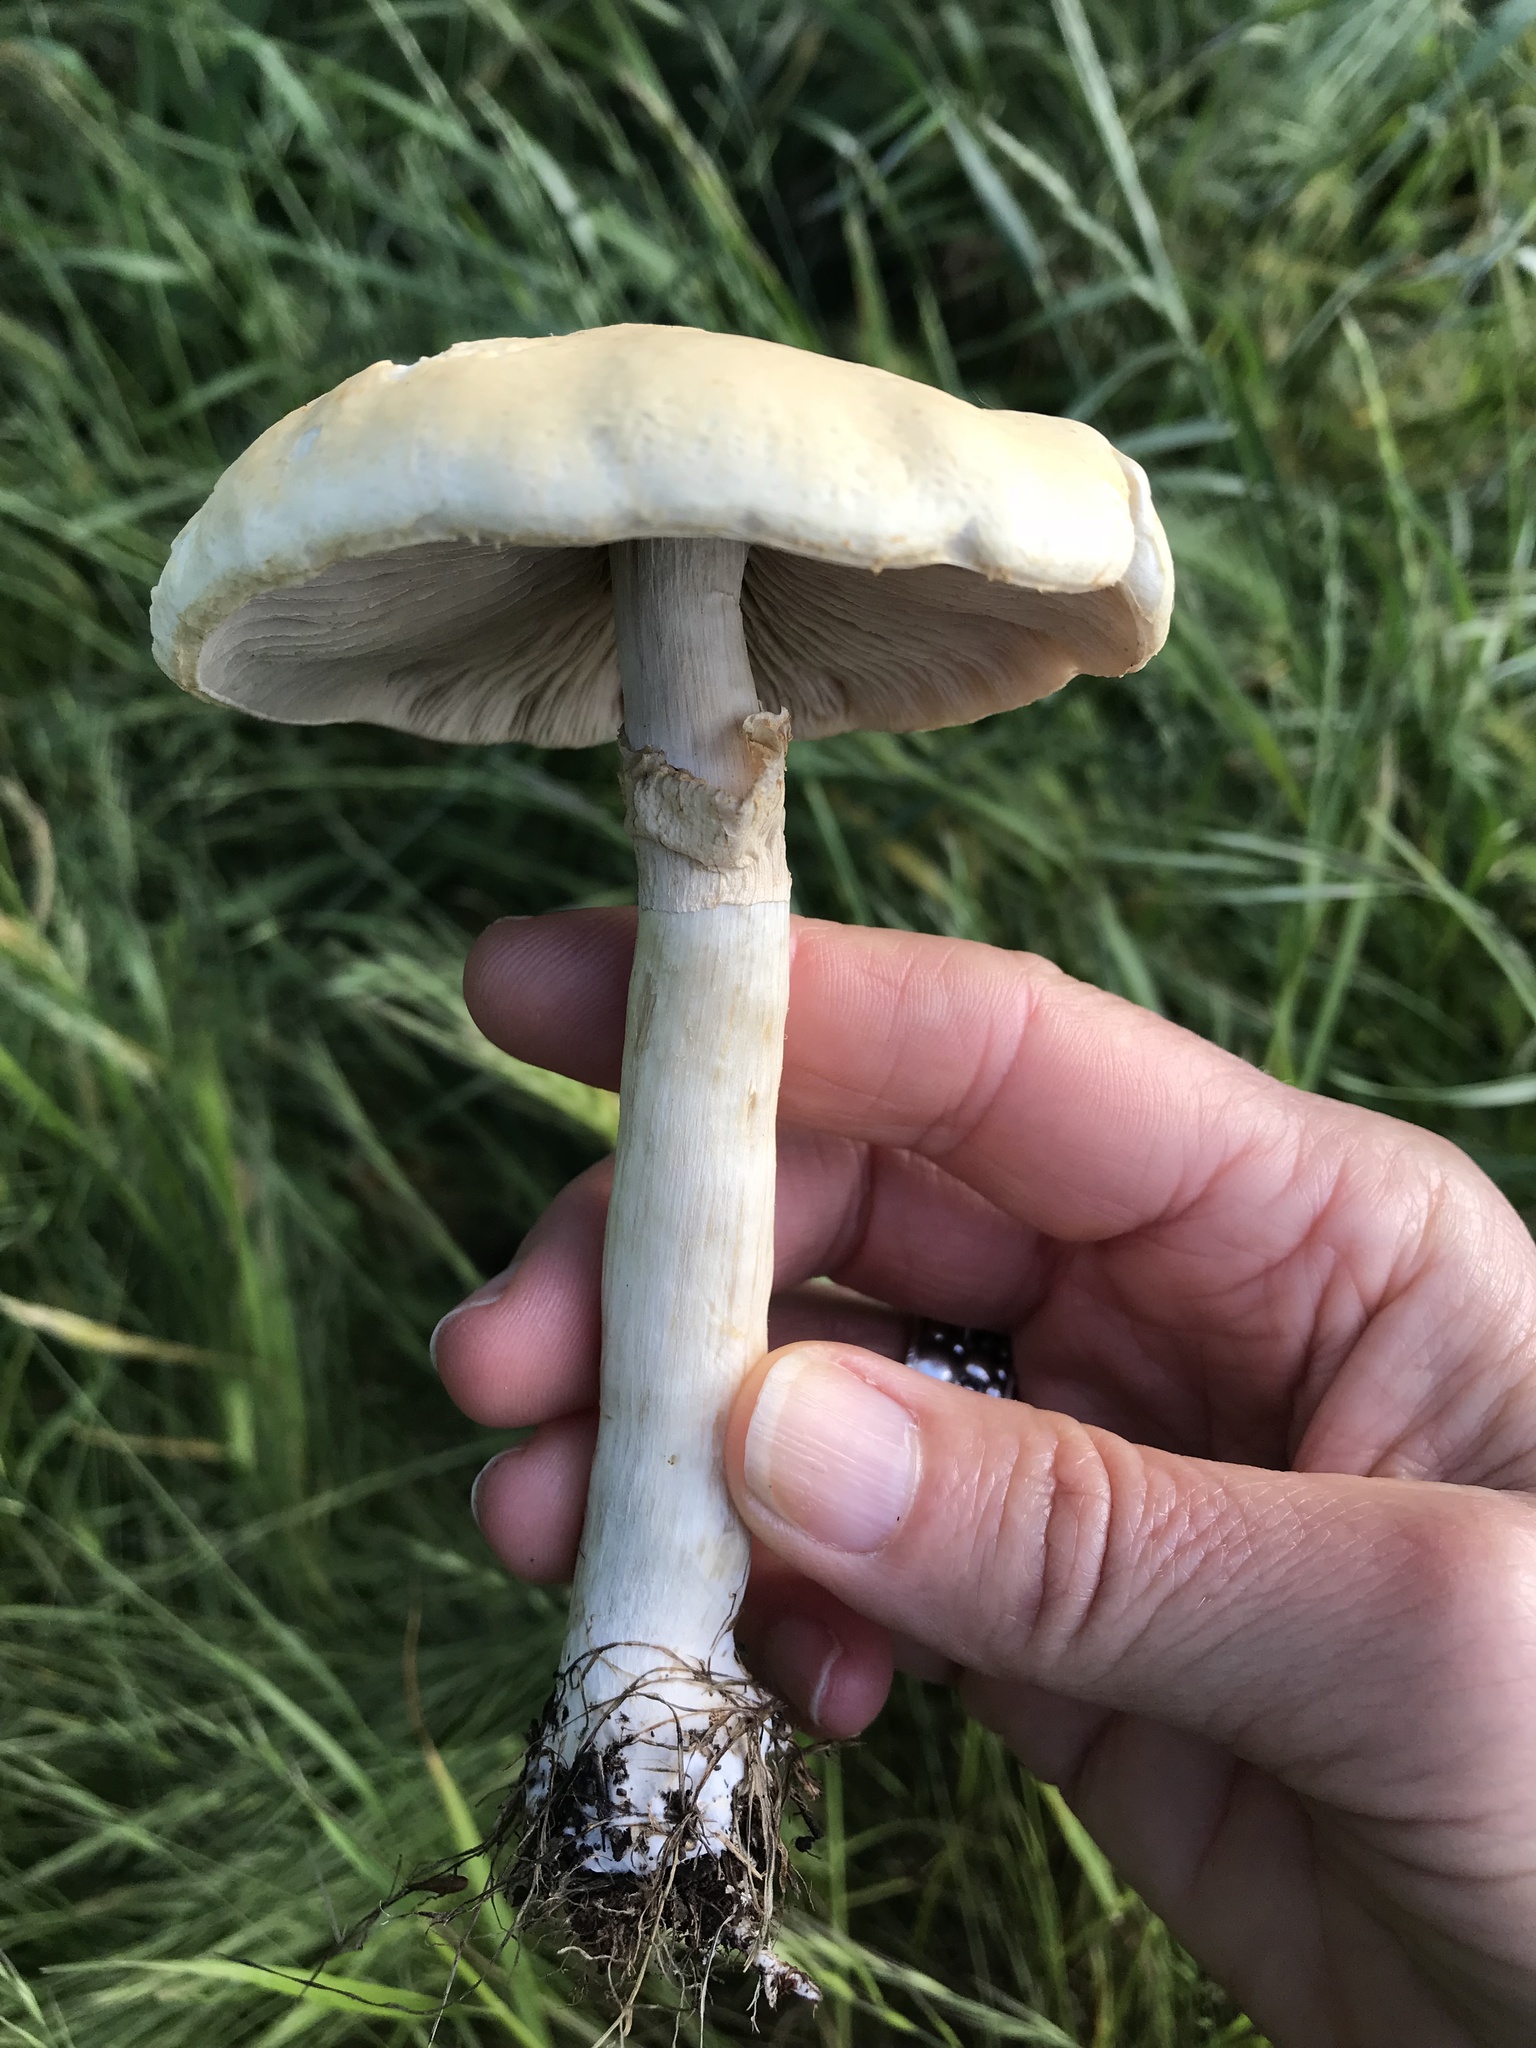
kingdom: Fungi
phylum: Basidiomycota
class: Agaricomycetes
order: Agaricales
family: Strophariaceae
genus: Agrocybe
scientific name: Agrocybe praecox
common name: Spring fieldcap
